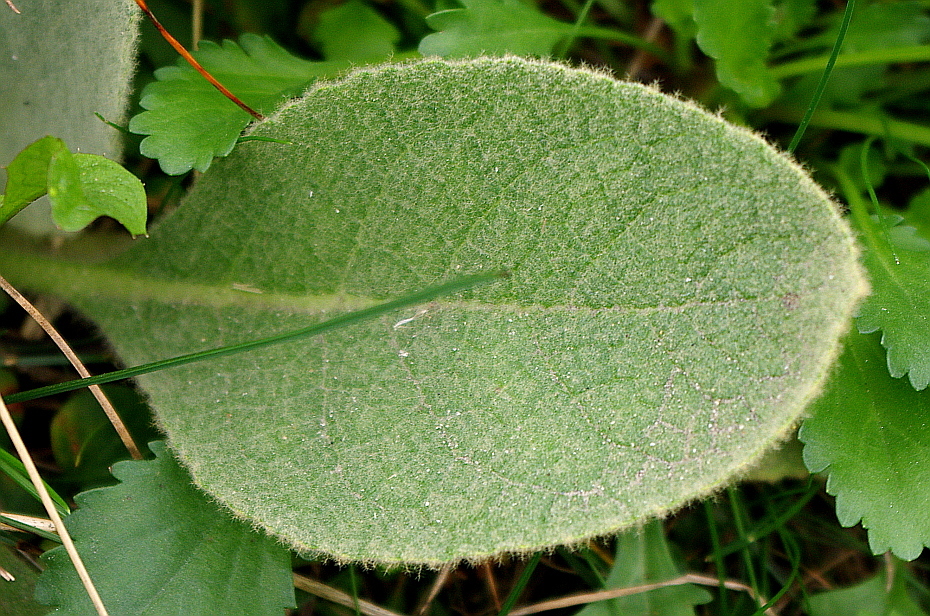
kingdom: Plantae
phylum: Tracheophyta
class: Magnoliopsida
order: Lamiales
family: Scrophulariaceae
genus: Verbascum
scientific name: Verbascum thapsus
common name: Common mullein
